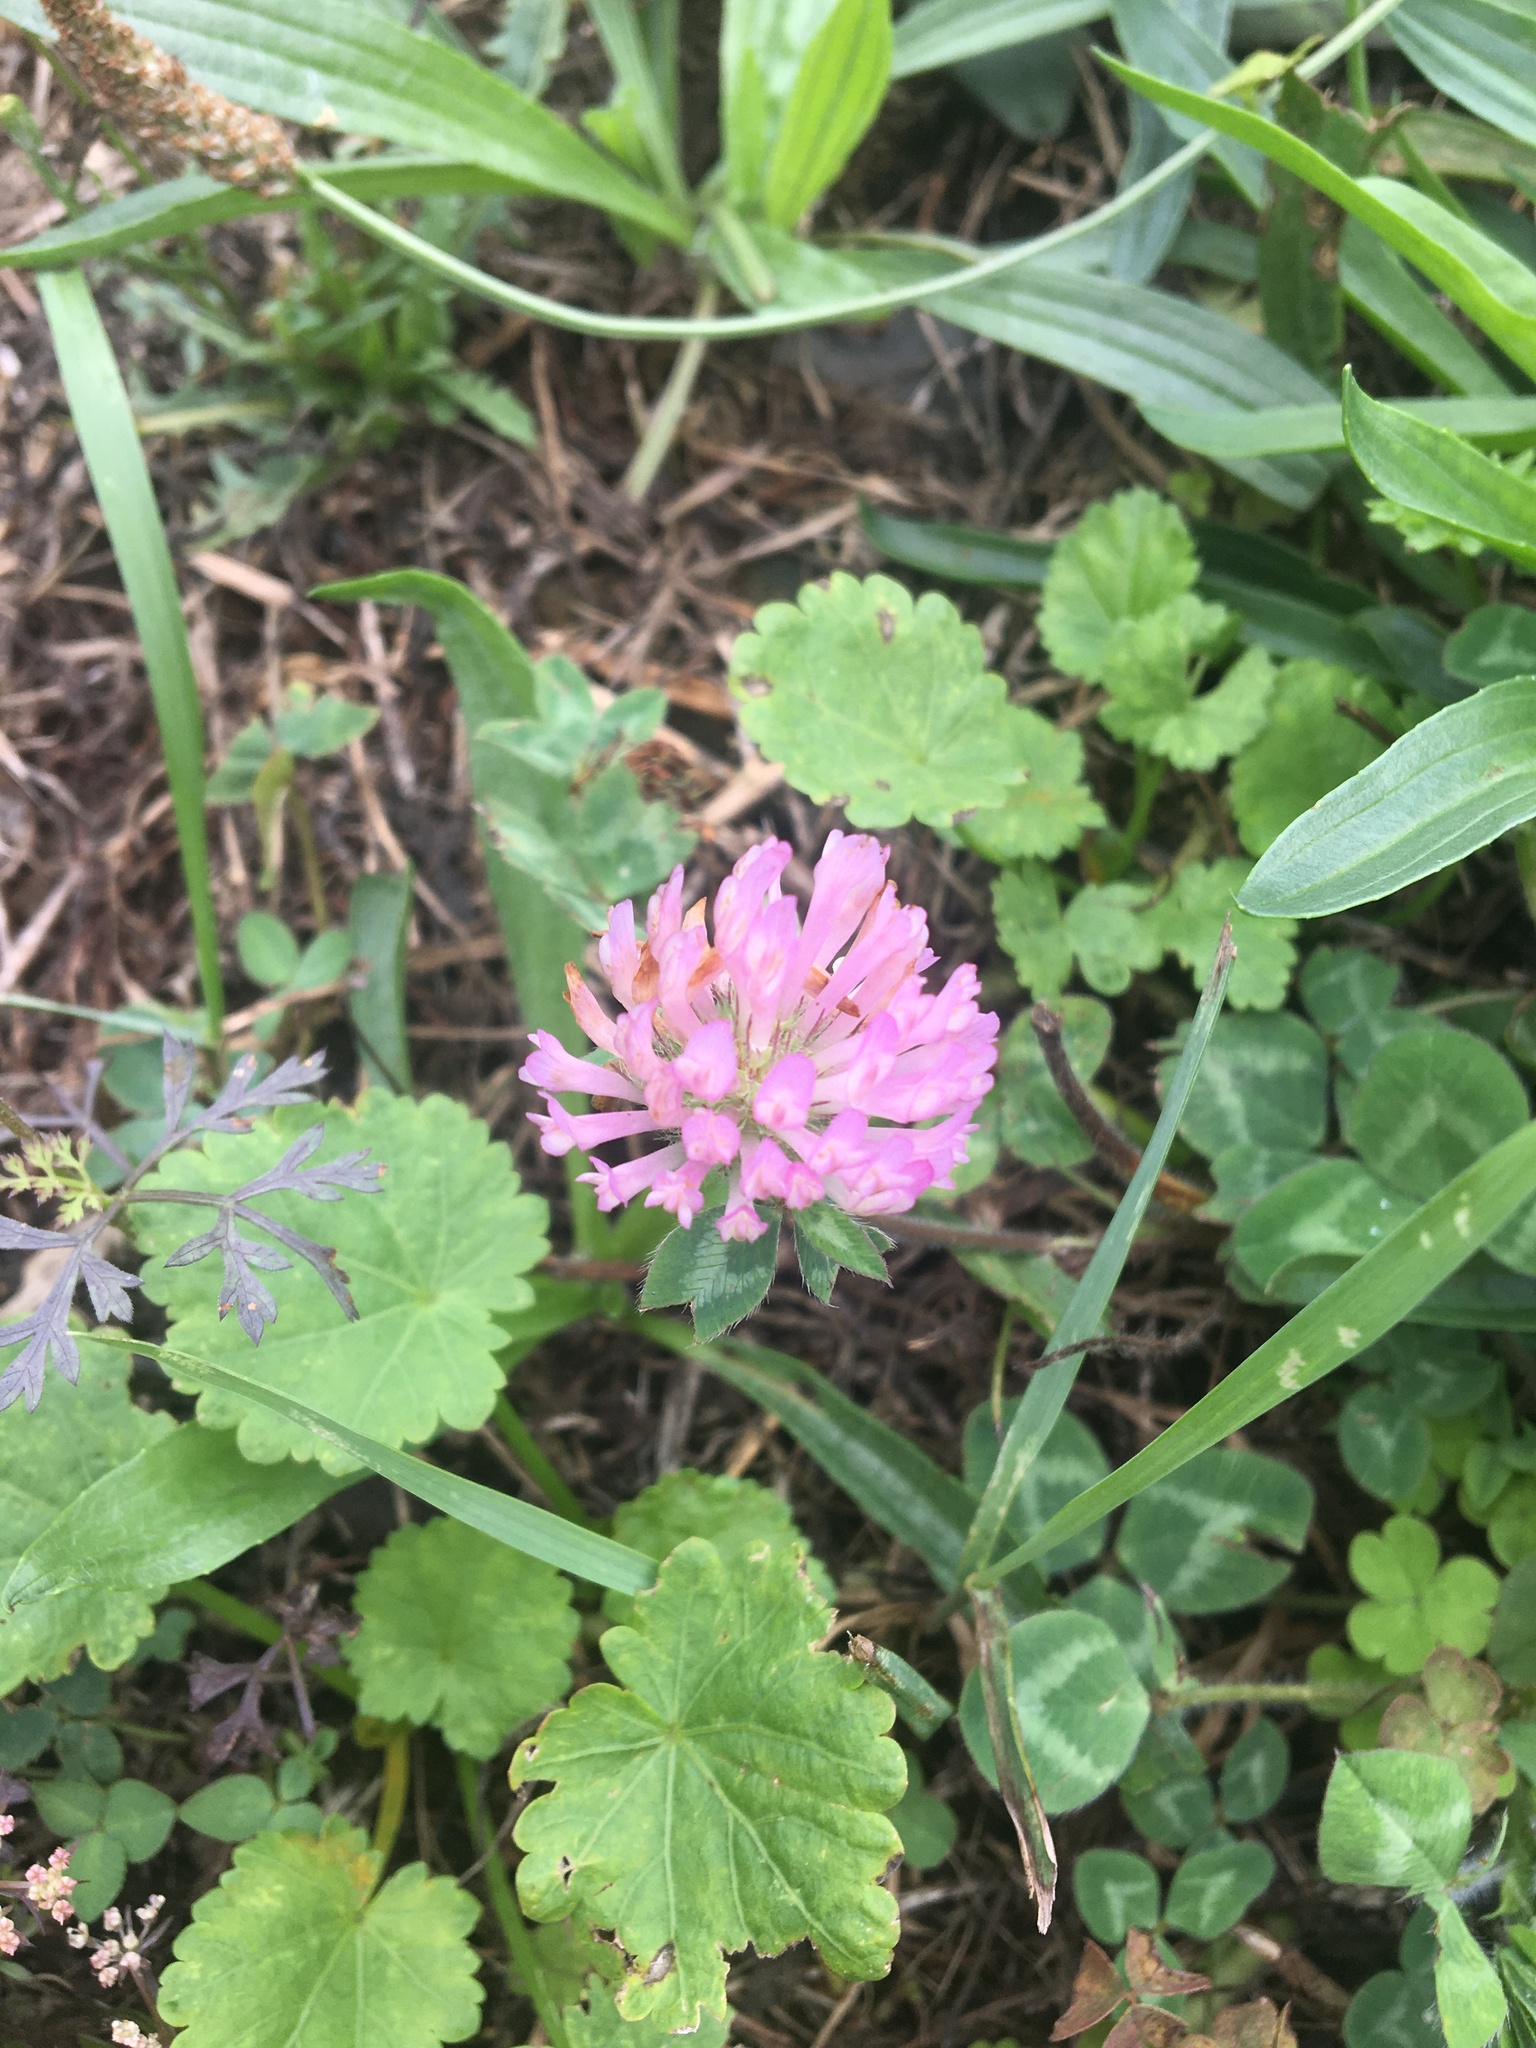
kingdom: Plantae
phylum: Tracheophyta
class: Magnoliopsida
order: Fabales
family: Fabaceae
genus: Trifolium
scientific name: Trifolium pratense
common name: Red clover
